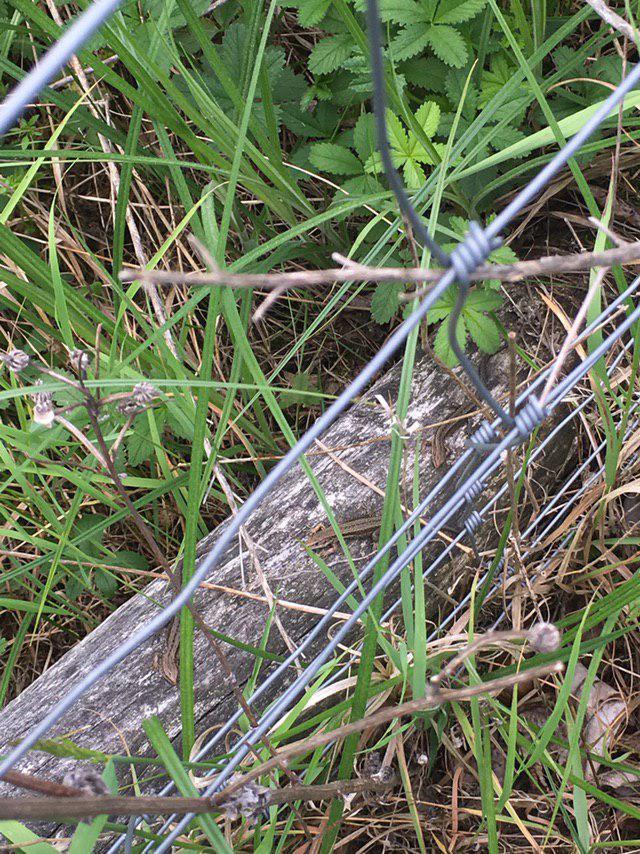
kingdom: Animalia
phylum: Chordata
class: Squamata
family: Lacertidae
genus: Zootoca
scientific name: Zootoca vivipara
